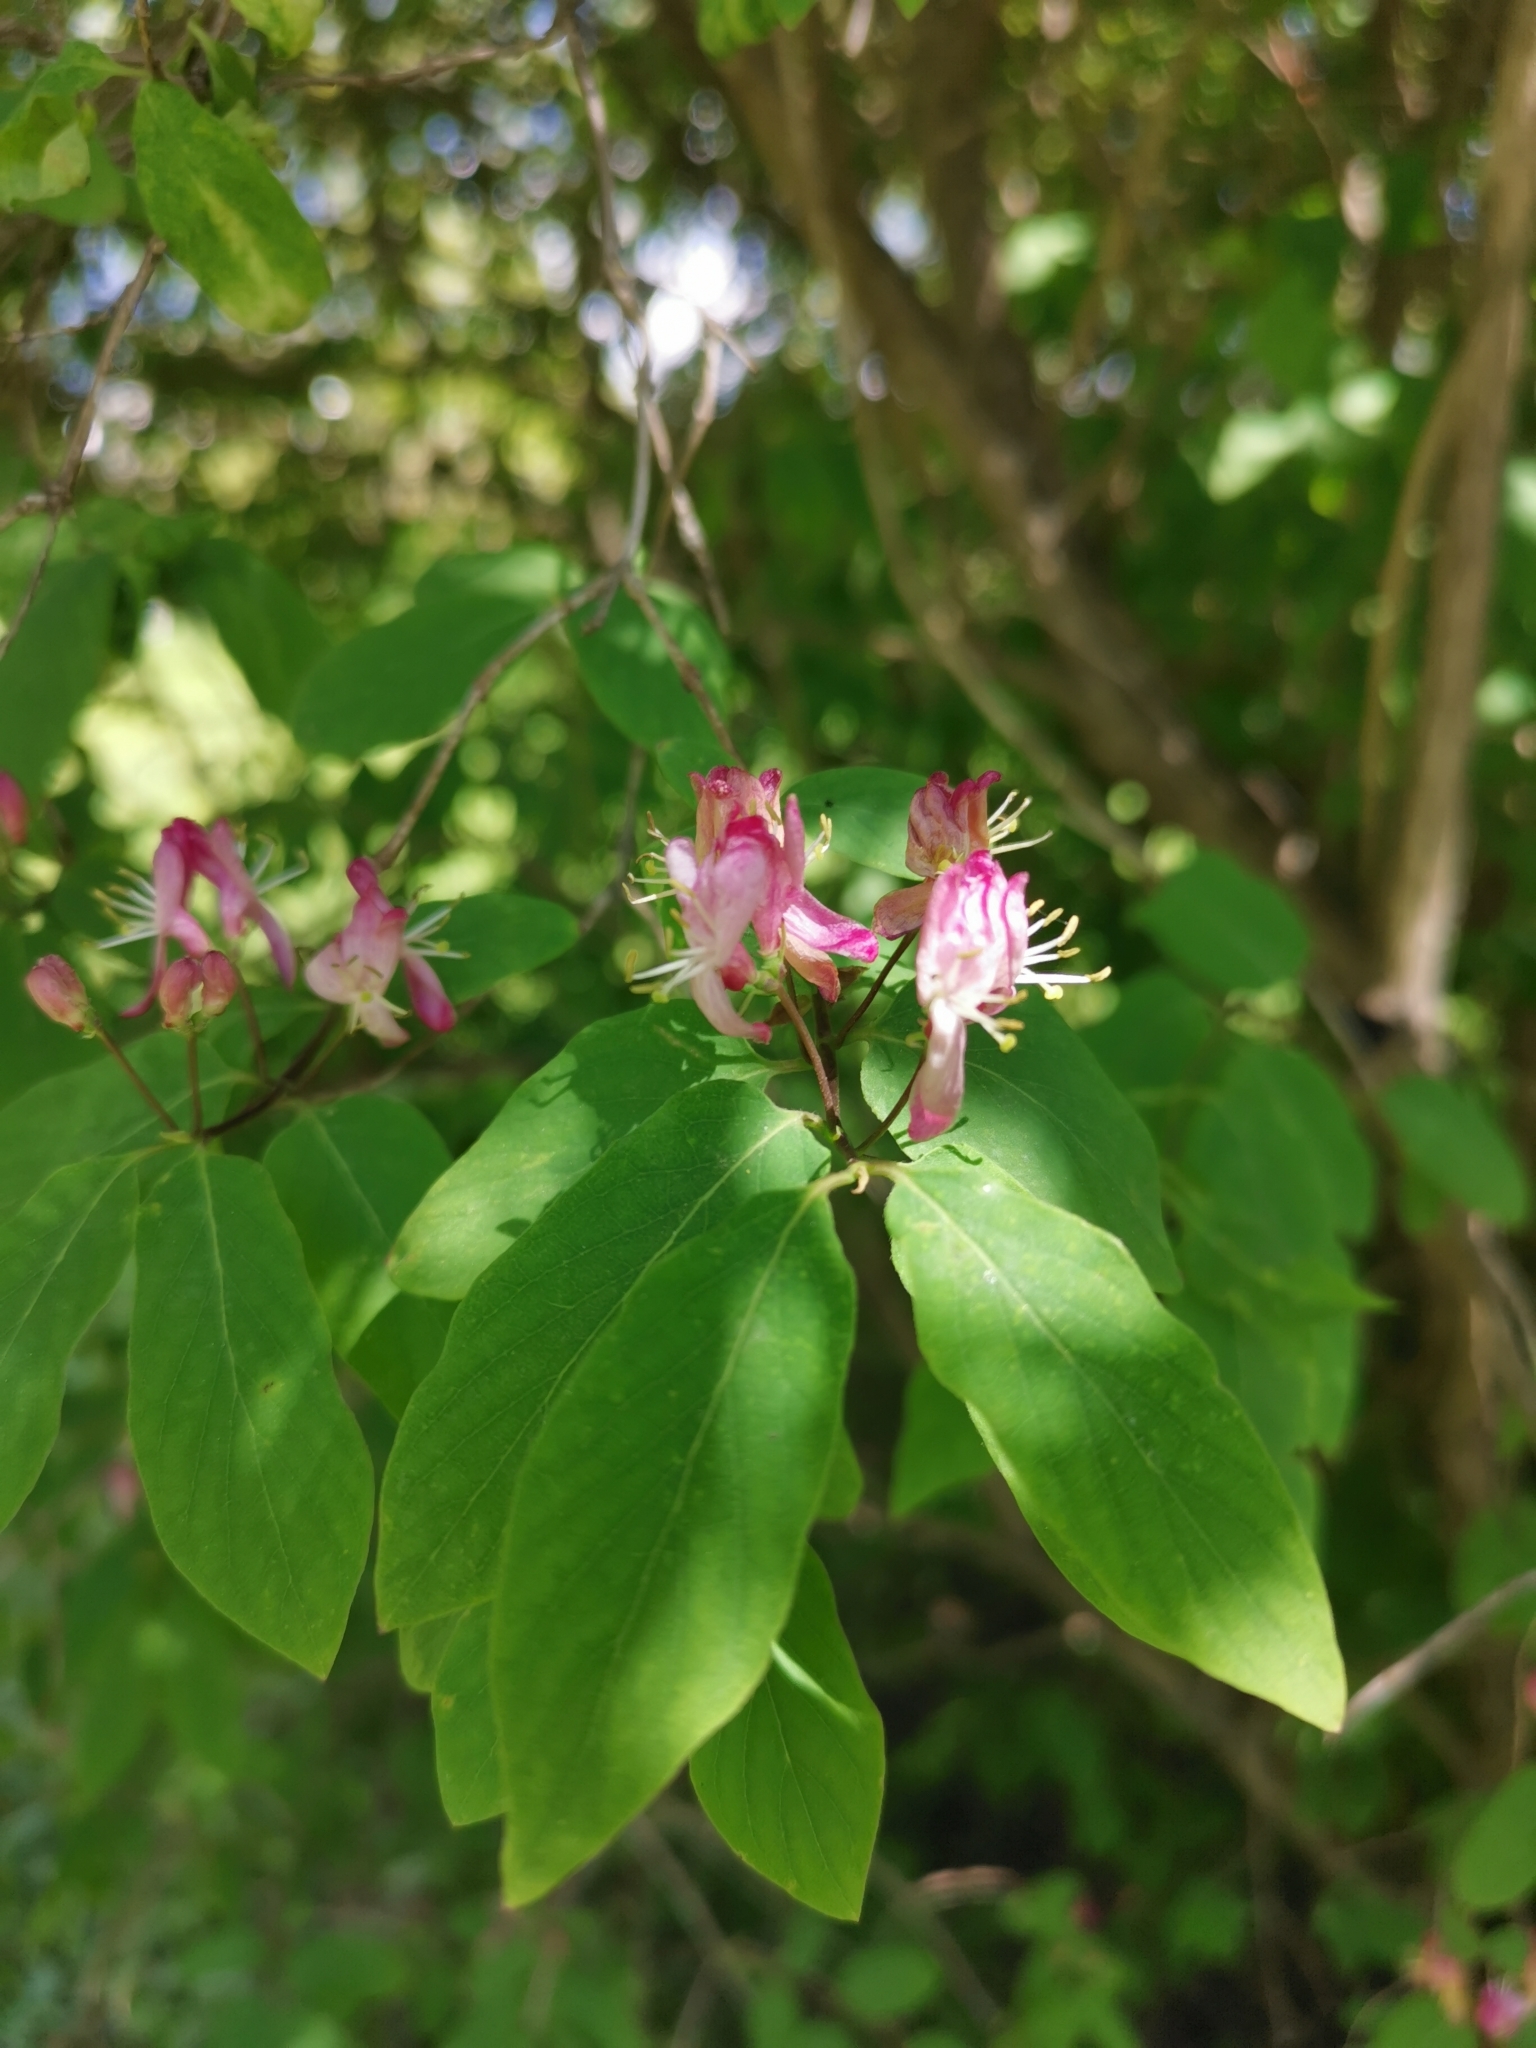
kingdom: Plantae
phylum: Tracheophyta
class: Magnoliopsida
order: Dipsacales
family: Caprifoliaceae
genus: Lonicera
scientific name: Lonicera xylosteum
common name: Fly honeysuckle
